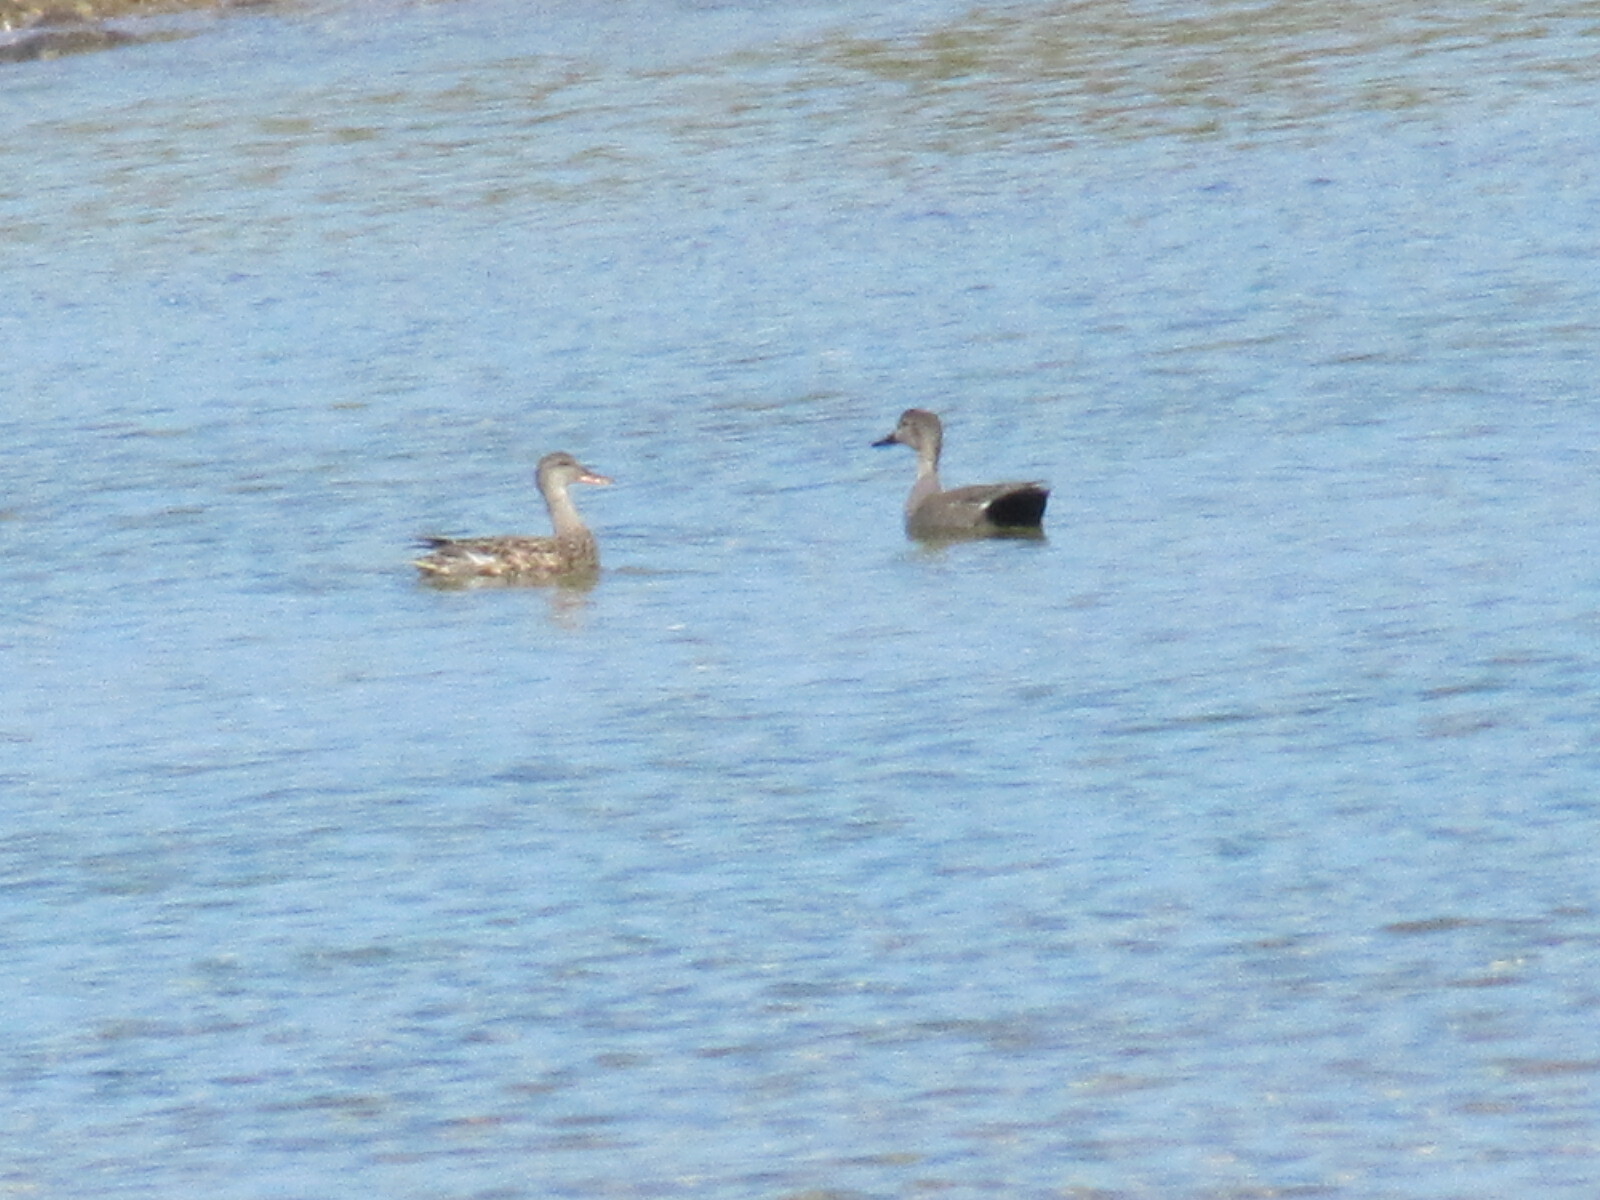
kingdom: Animalia
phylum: Chordata
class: Aves
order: Anseriformes
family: Anatidae
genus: Mareca
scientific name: Mareca strepera
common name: Gadwall
